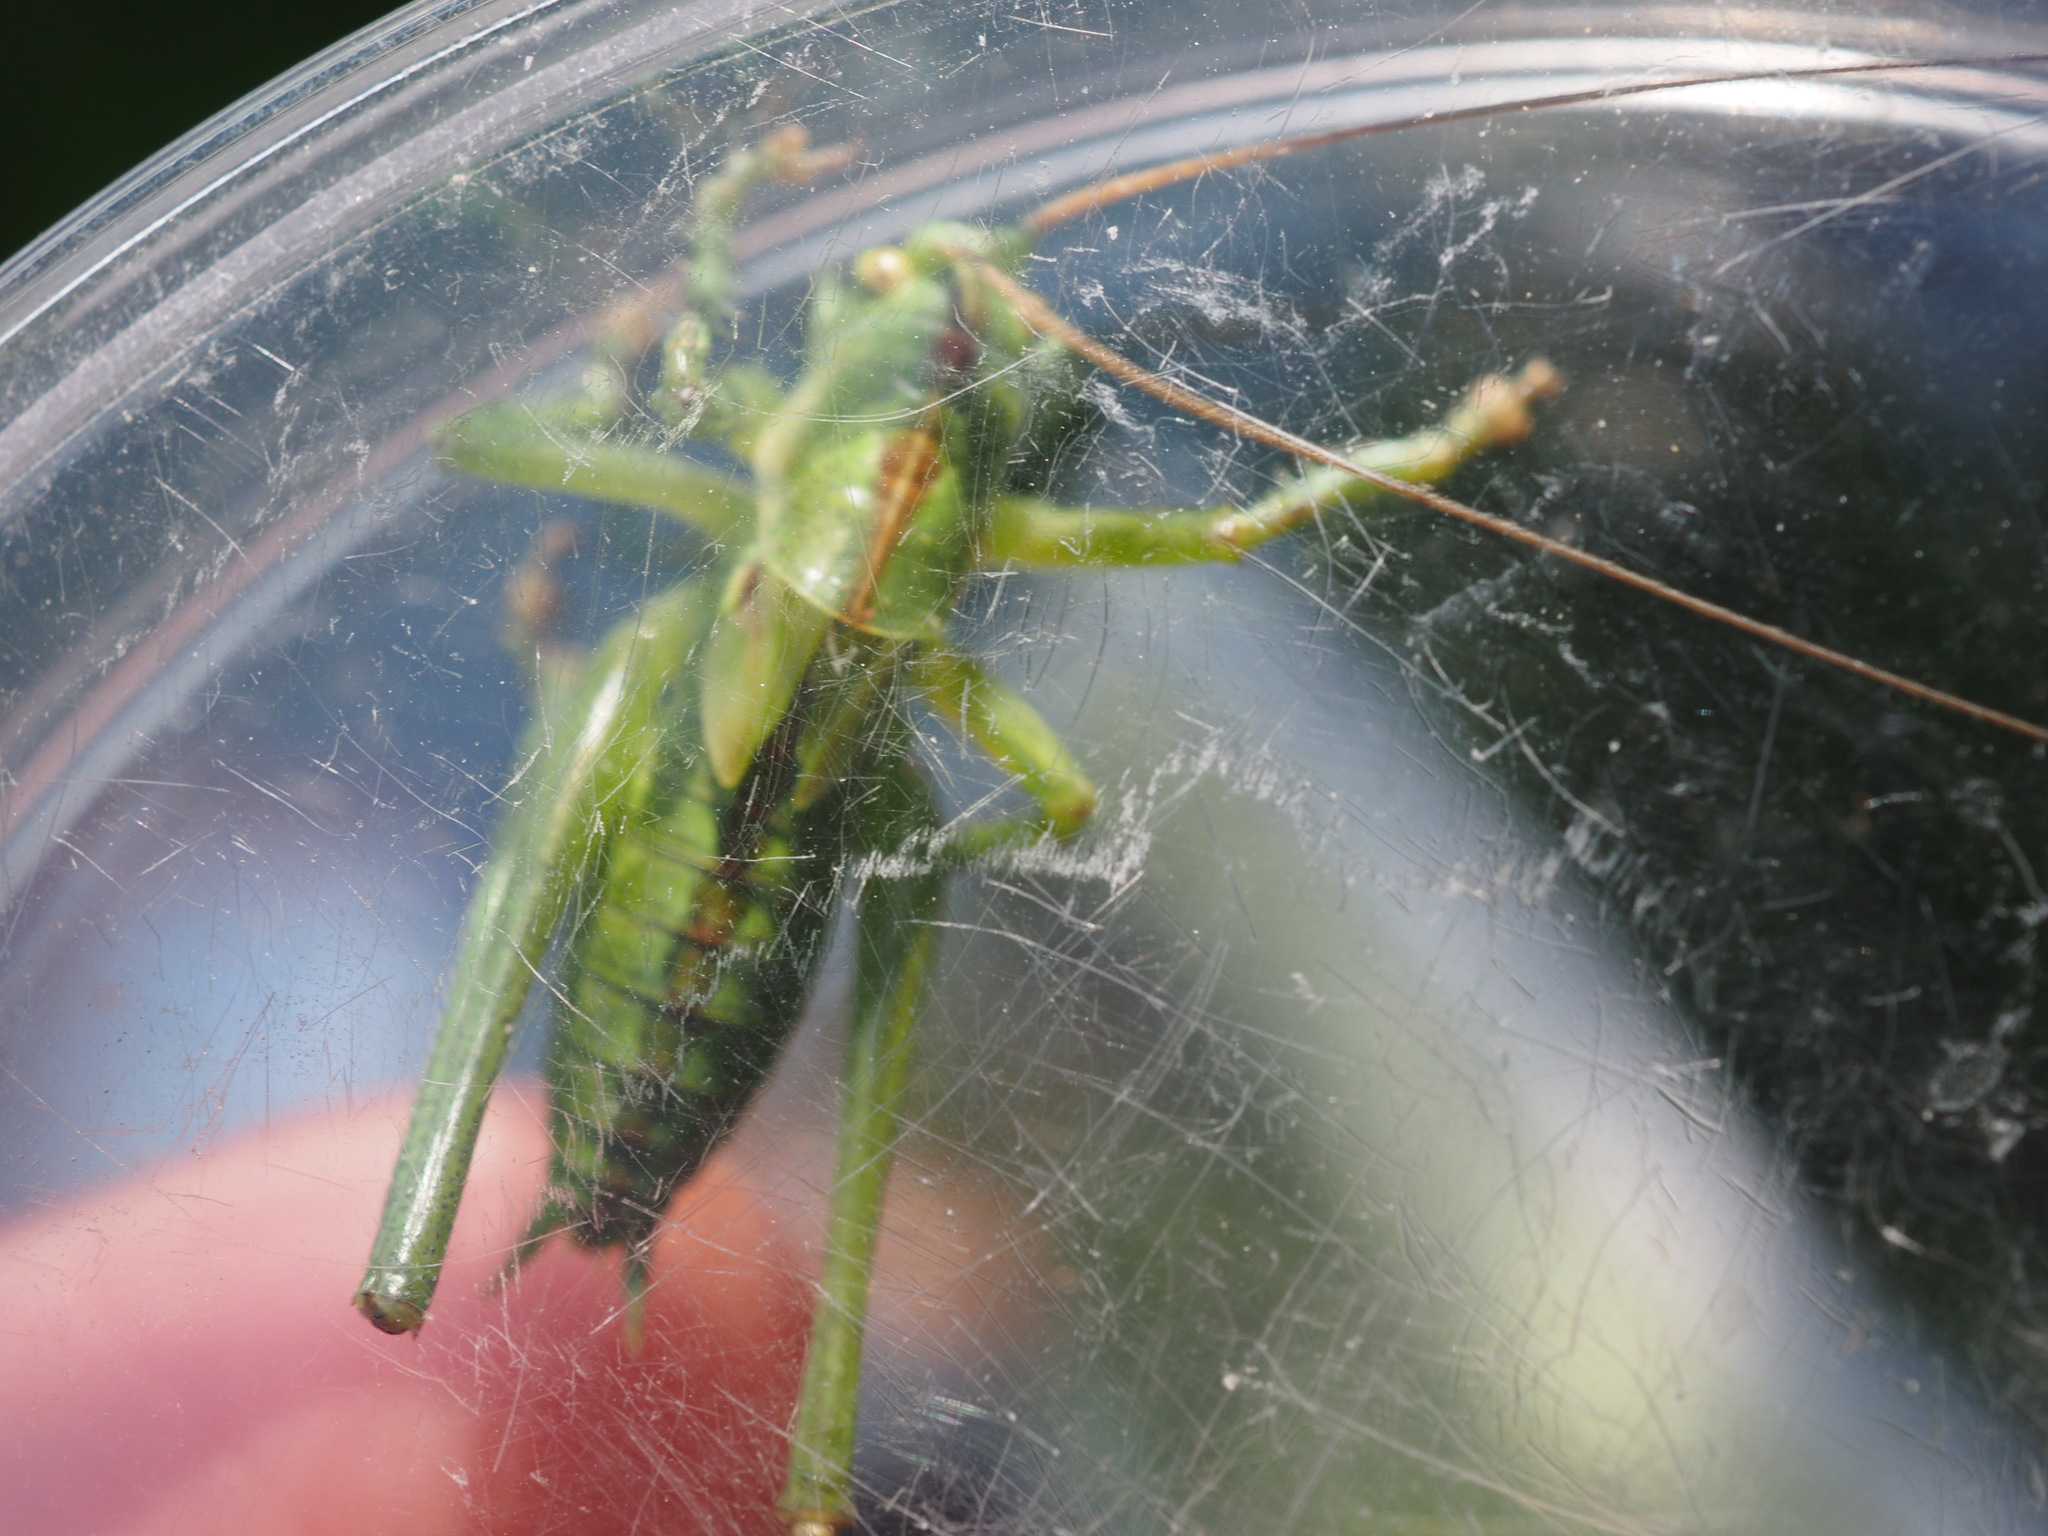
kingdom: Animalia
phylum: Arthropoda
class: Insecta
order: Orthoptera
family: Tettigoniidae
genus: Tettigonia
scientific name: Tettigonia viridissima
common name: Great green bush-cricket
